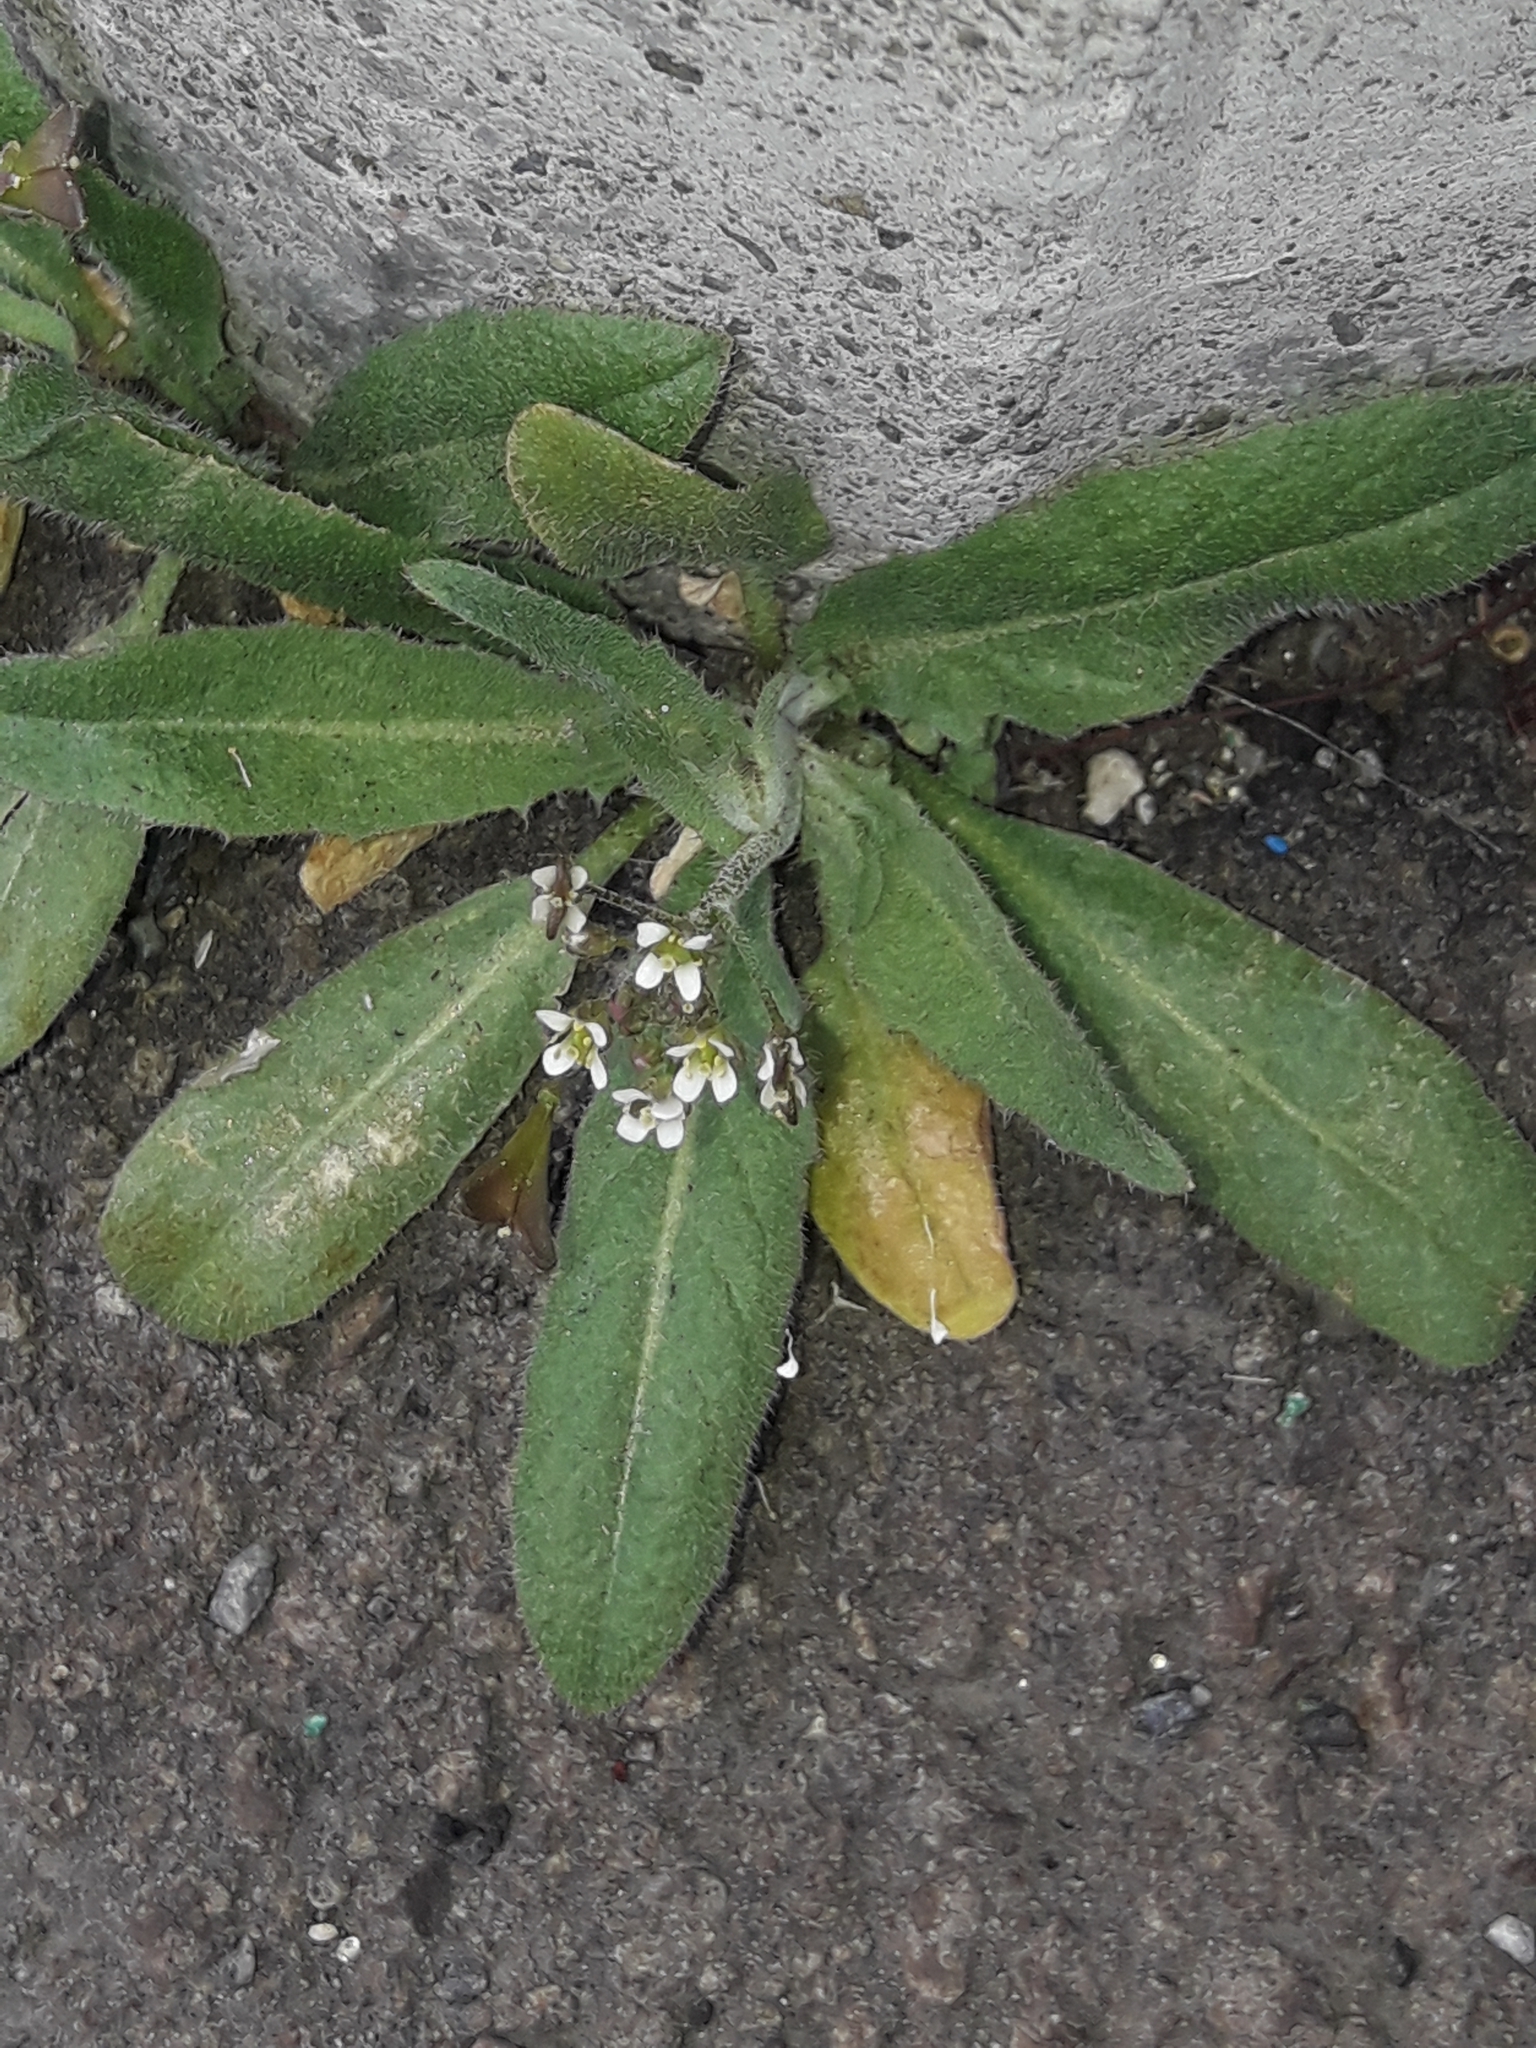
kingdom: Plantae
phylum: Tracheophyta
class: Magnoliopsida
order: Brassicales
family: Brassicaceae
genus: Capsella
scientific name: Capsella bursa-pastoris
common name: Shepherd's purse
